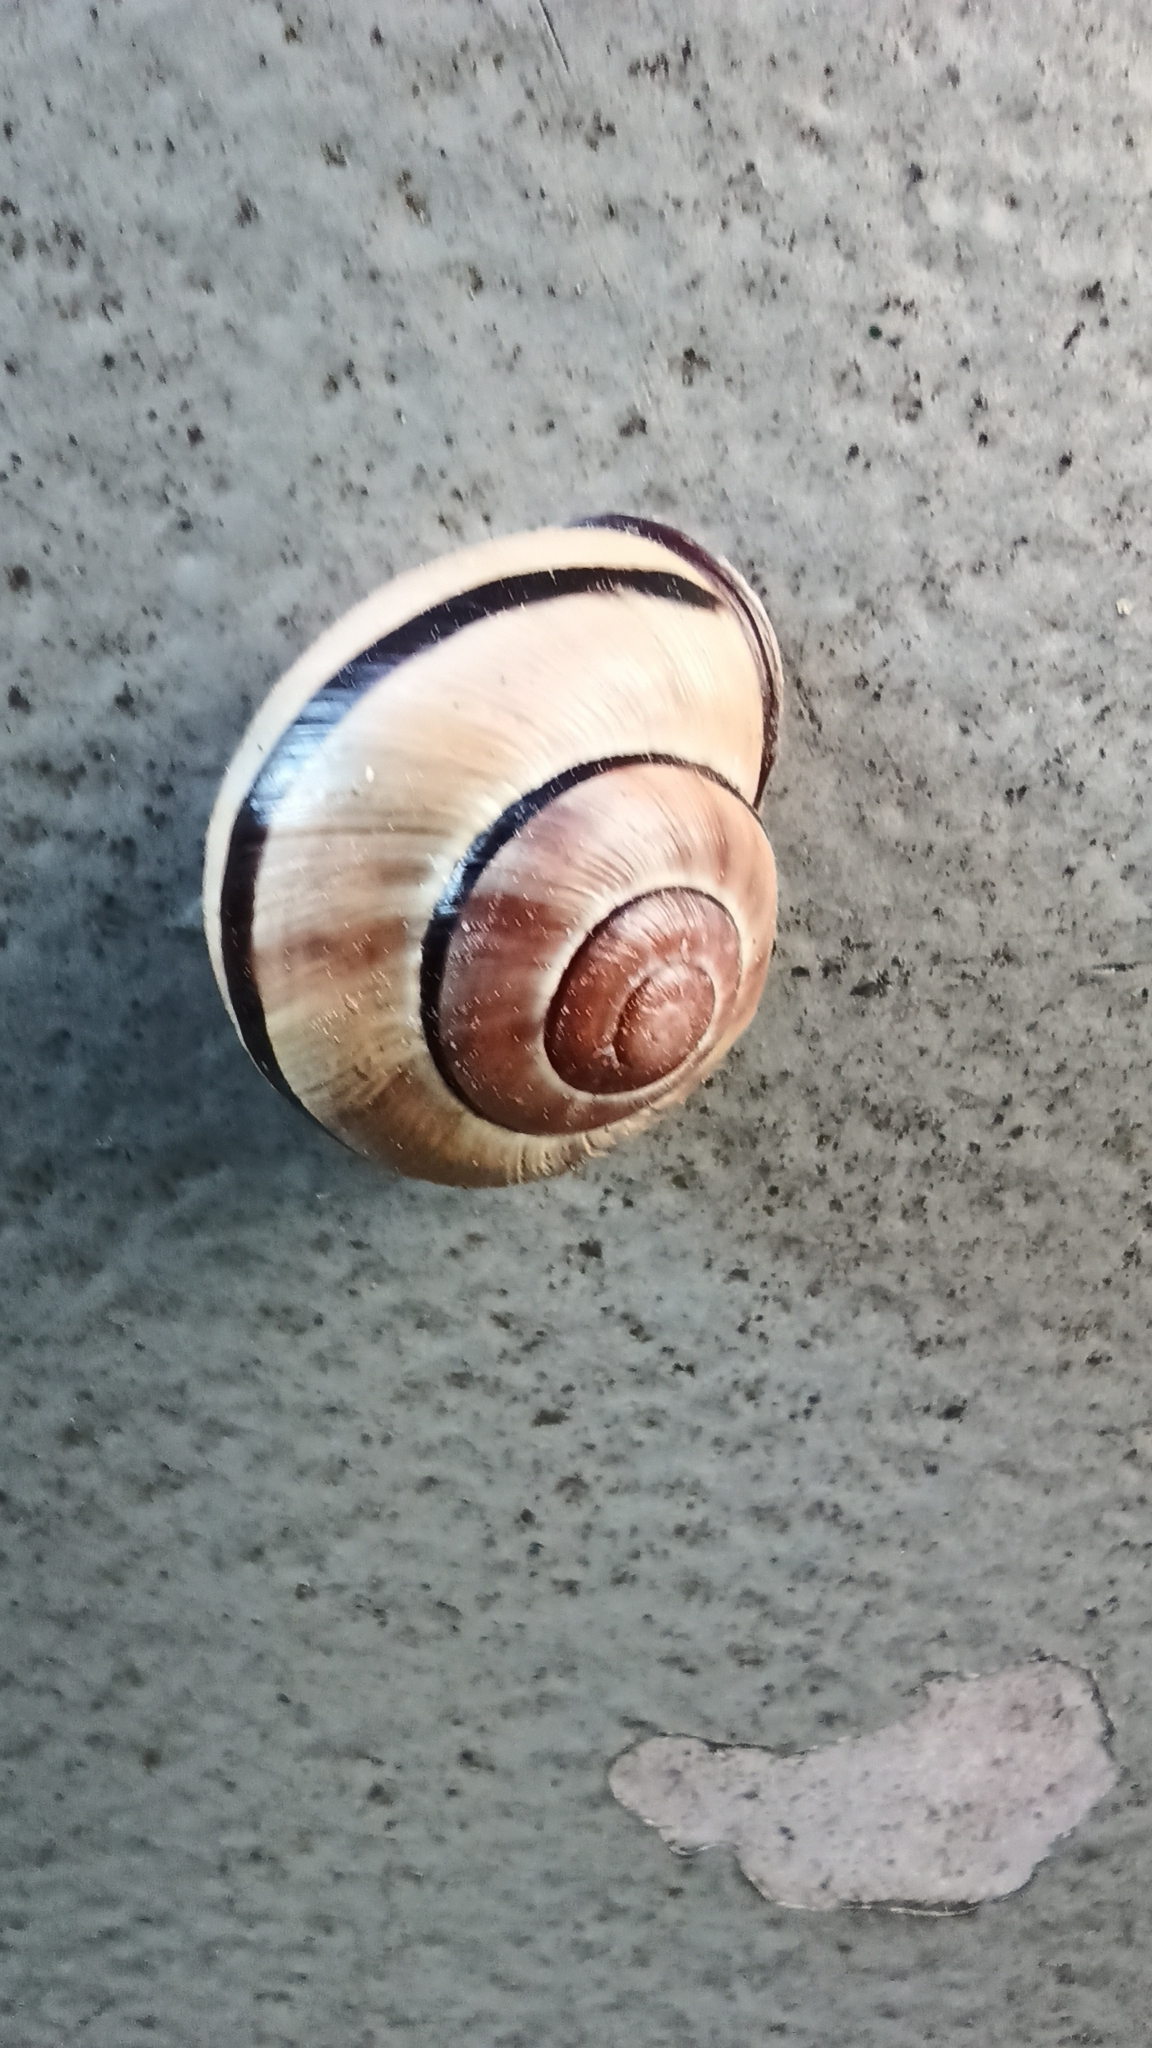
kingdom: Animalia
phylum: Mollusca
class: Gastropoda
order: Stylommatophora
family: Helicidae
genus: Cepaea
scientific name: Cepaea nemoralis
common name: Grovesnail
